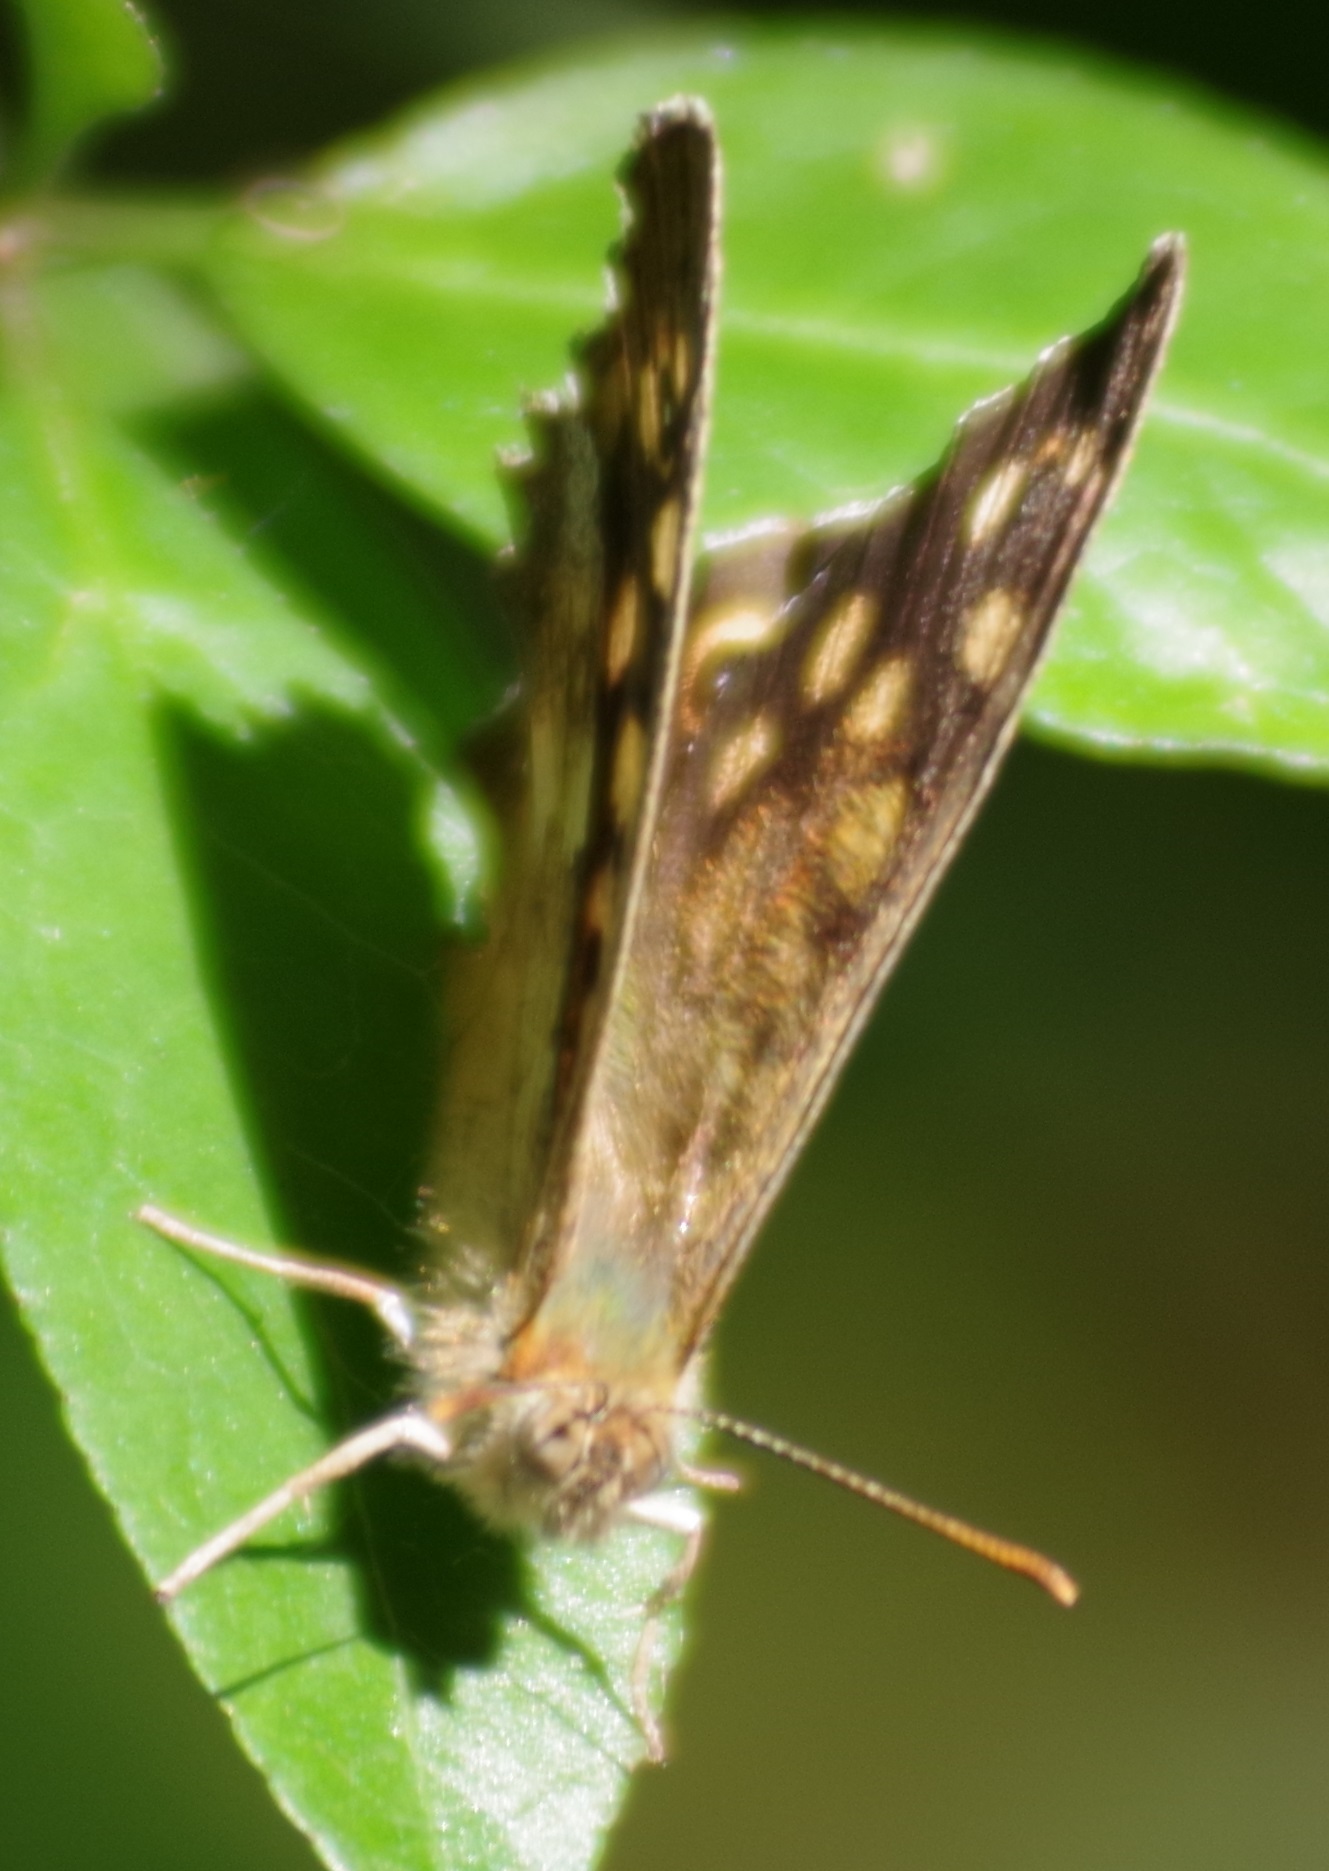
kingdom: Animalia
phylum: Arthropoda
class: Insecta
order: Lepidoptera
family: Nymphalidae
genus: Pararge
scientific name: Pararge aegeria
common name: Speckled wood
